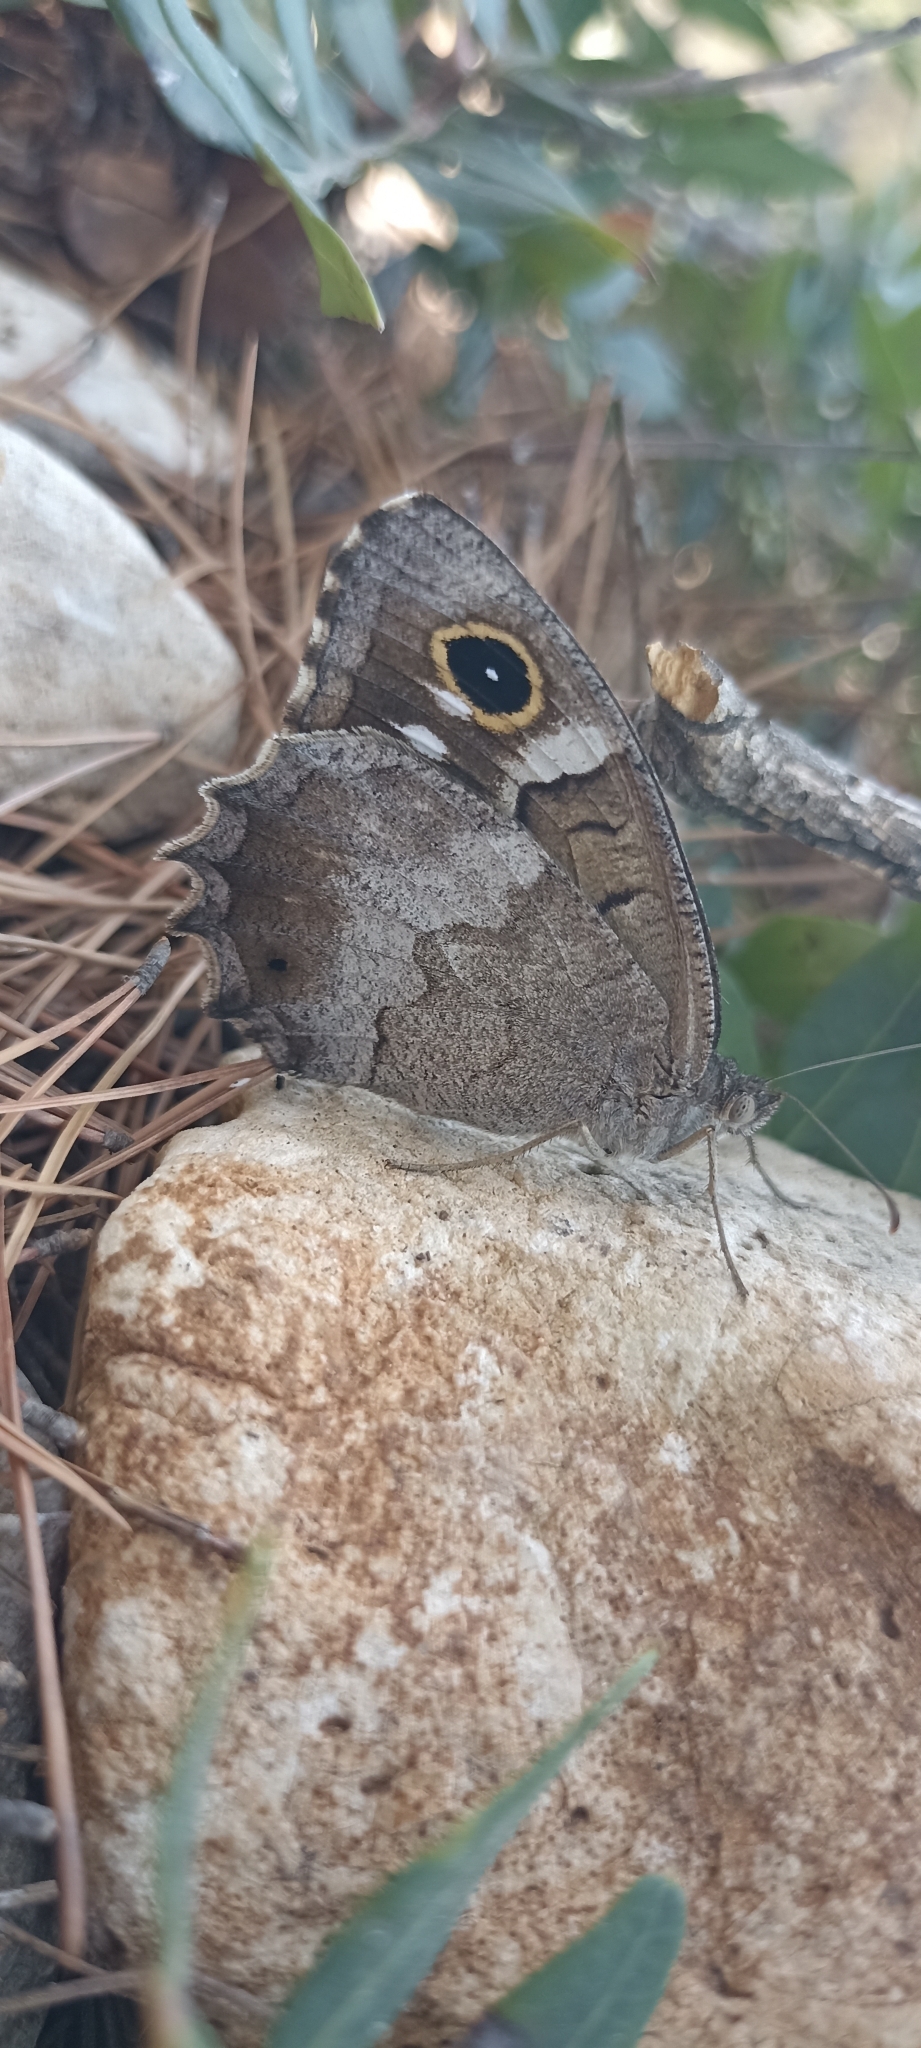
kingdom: Animalia
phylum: Arthropoda
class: Insecta
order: Lepidoptera
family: Nymphalidae
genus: Hipparchia
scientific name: Hipparchia statilinus
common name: Tree grayling
